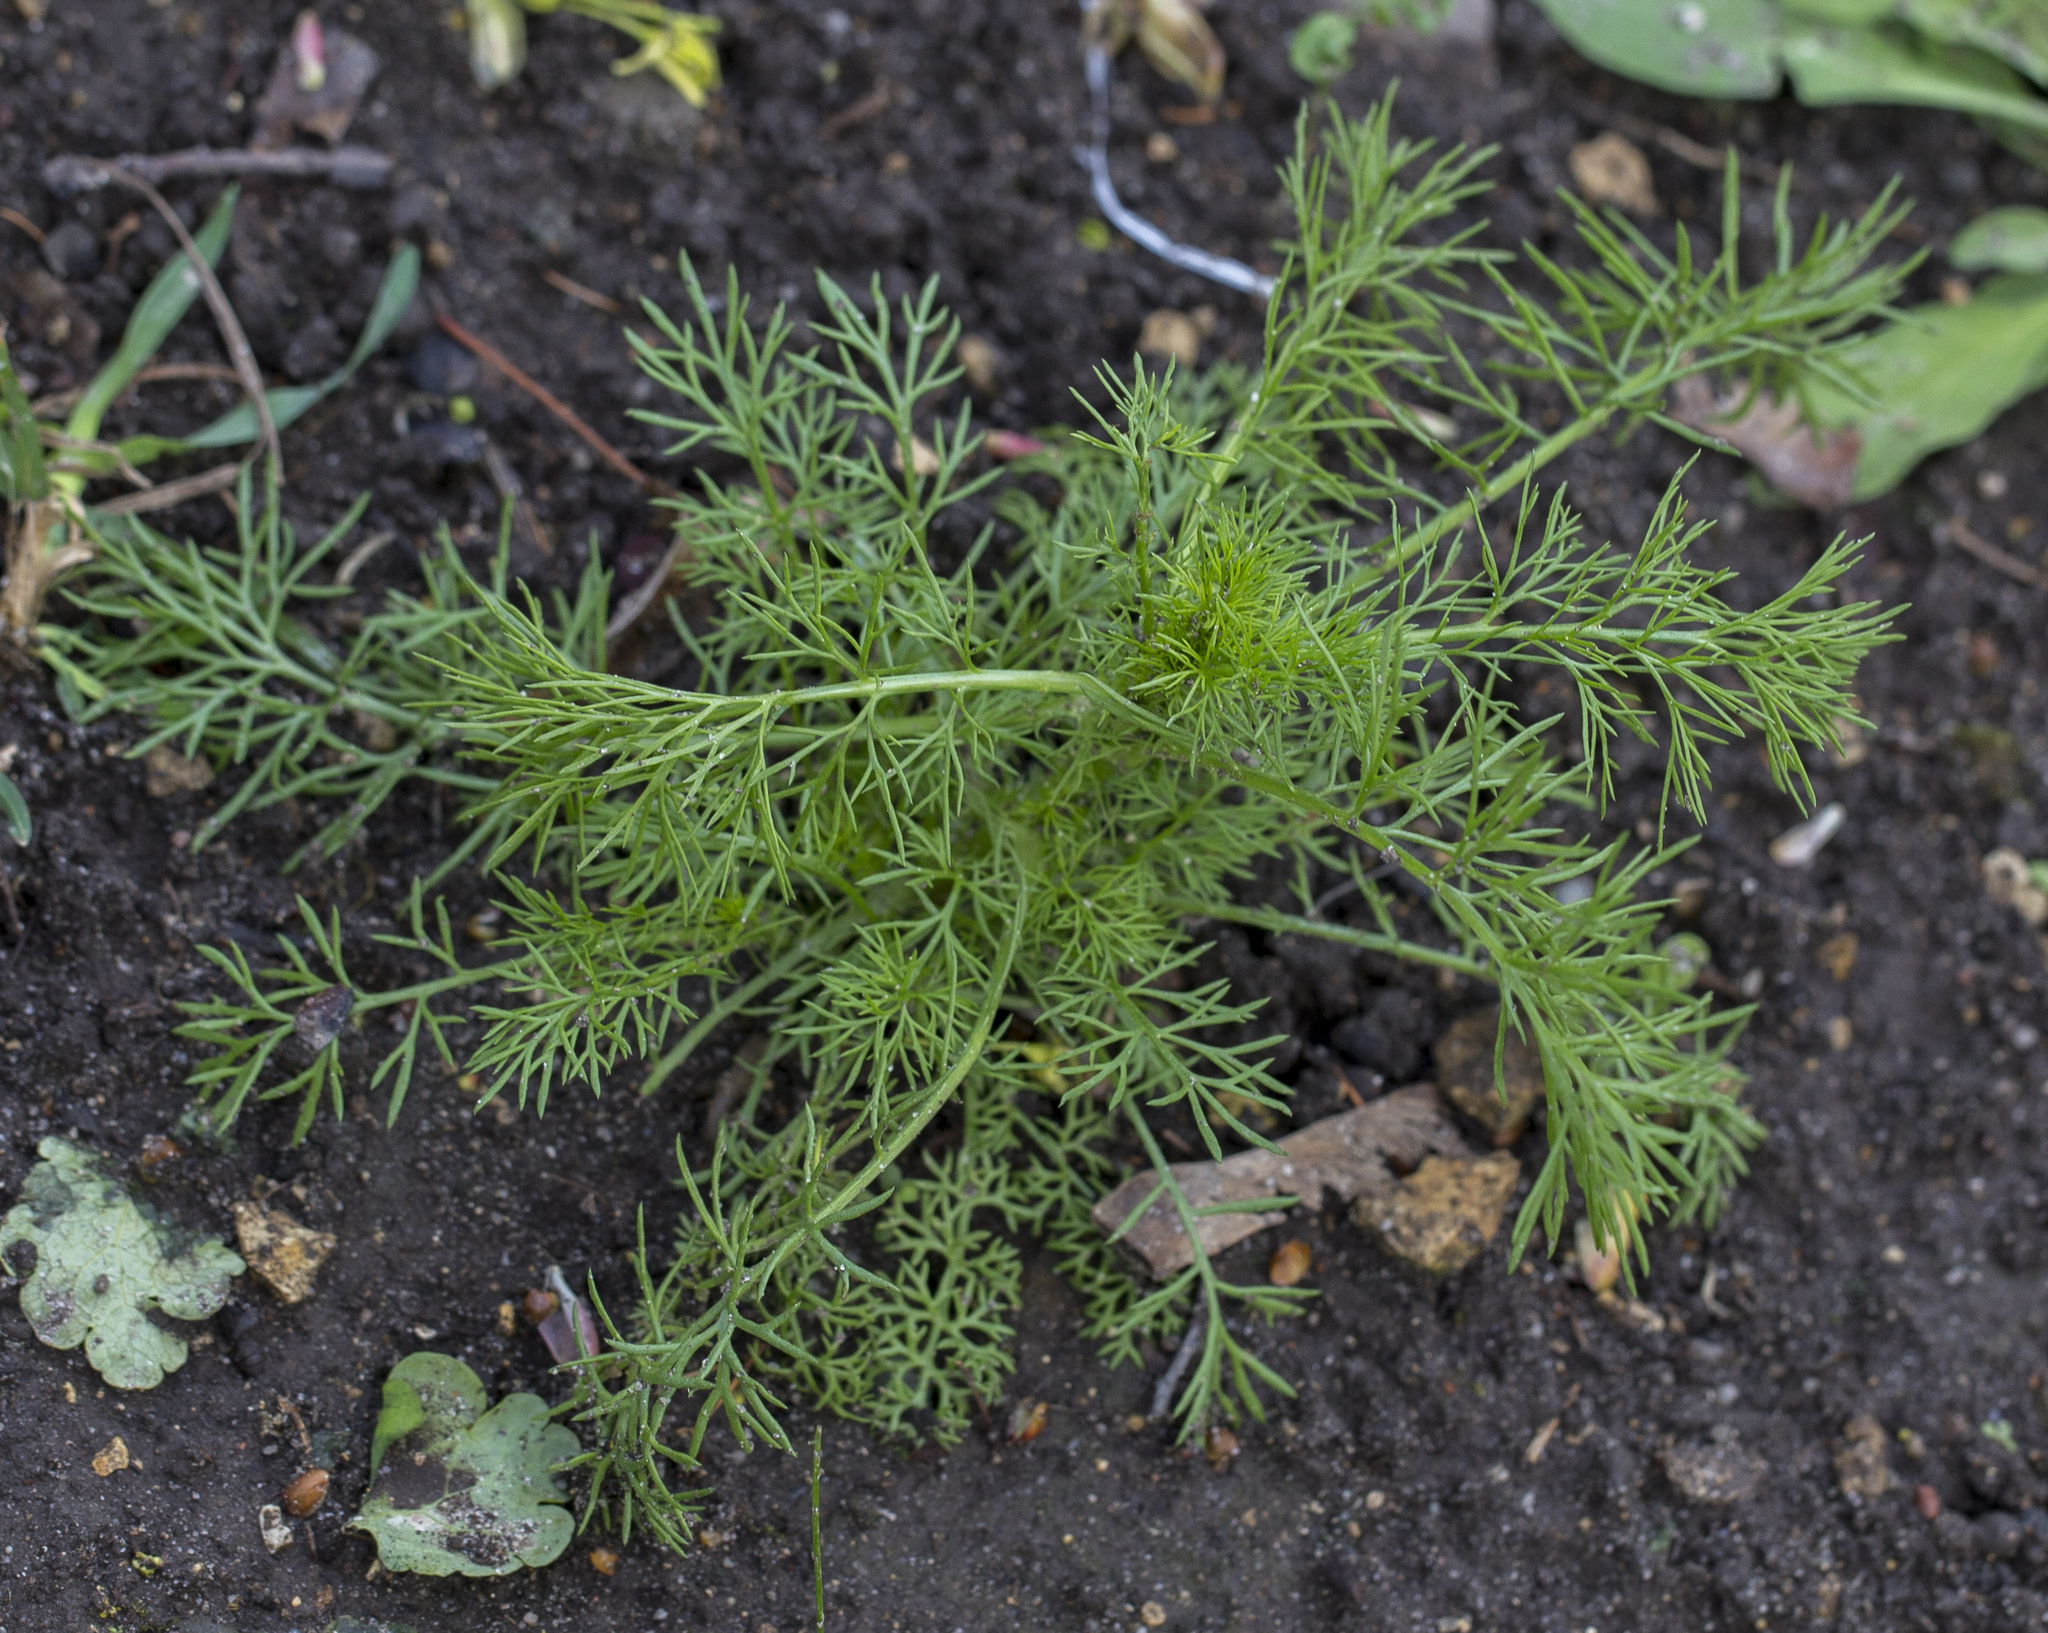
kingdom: Plantae
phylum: Tracheophyta
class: Magnoliopsida
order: Asterales
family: Asteraceae
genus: Tripleurospermum
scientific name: Tripleurospermum inodorum
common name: Scentless mayweed
